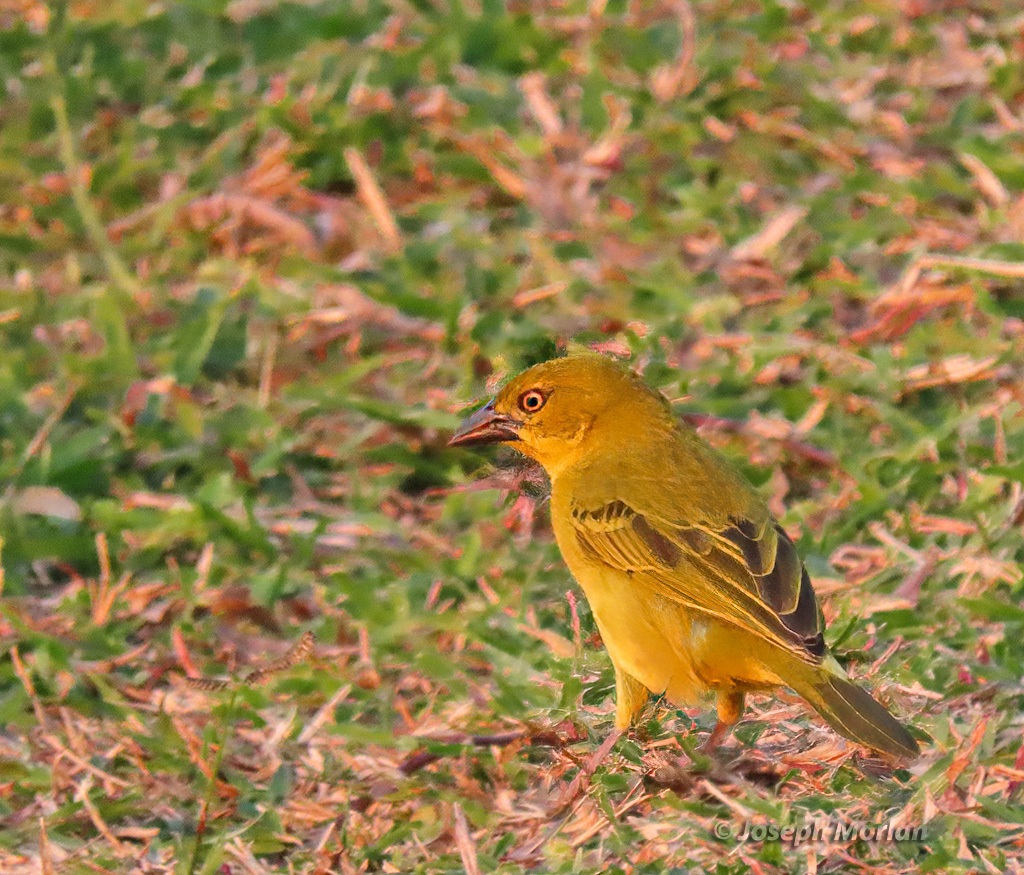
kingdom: Animalia
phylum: Chordata
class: Aves
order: Passeriformes
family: Ploceidae
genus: Ploceus
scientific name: Ploceus xanthops
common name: Holub's golden weaver
